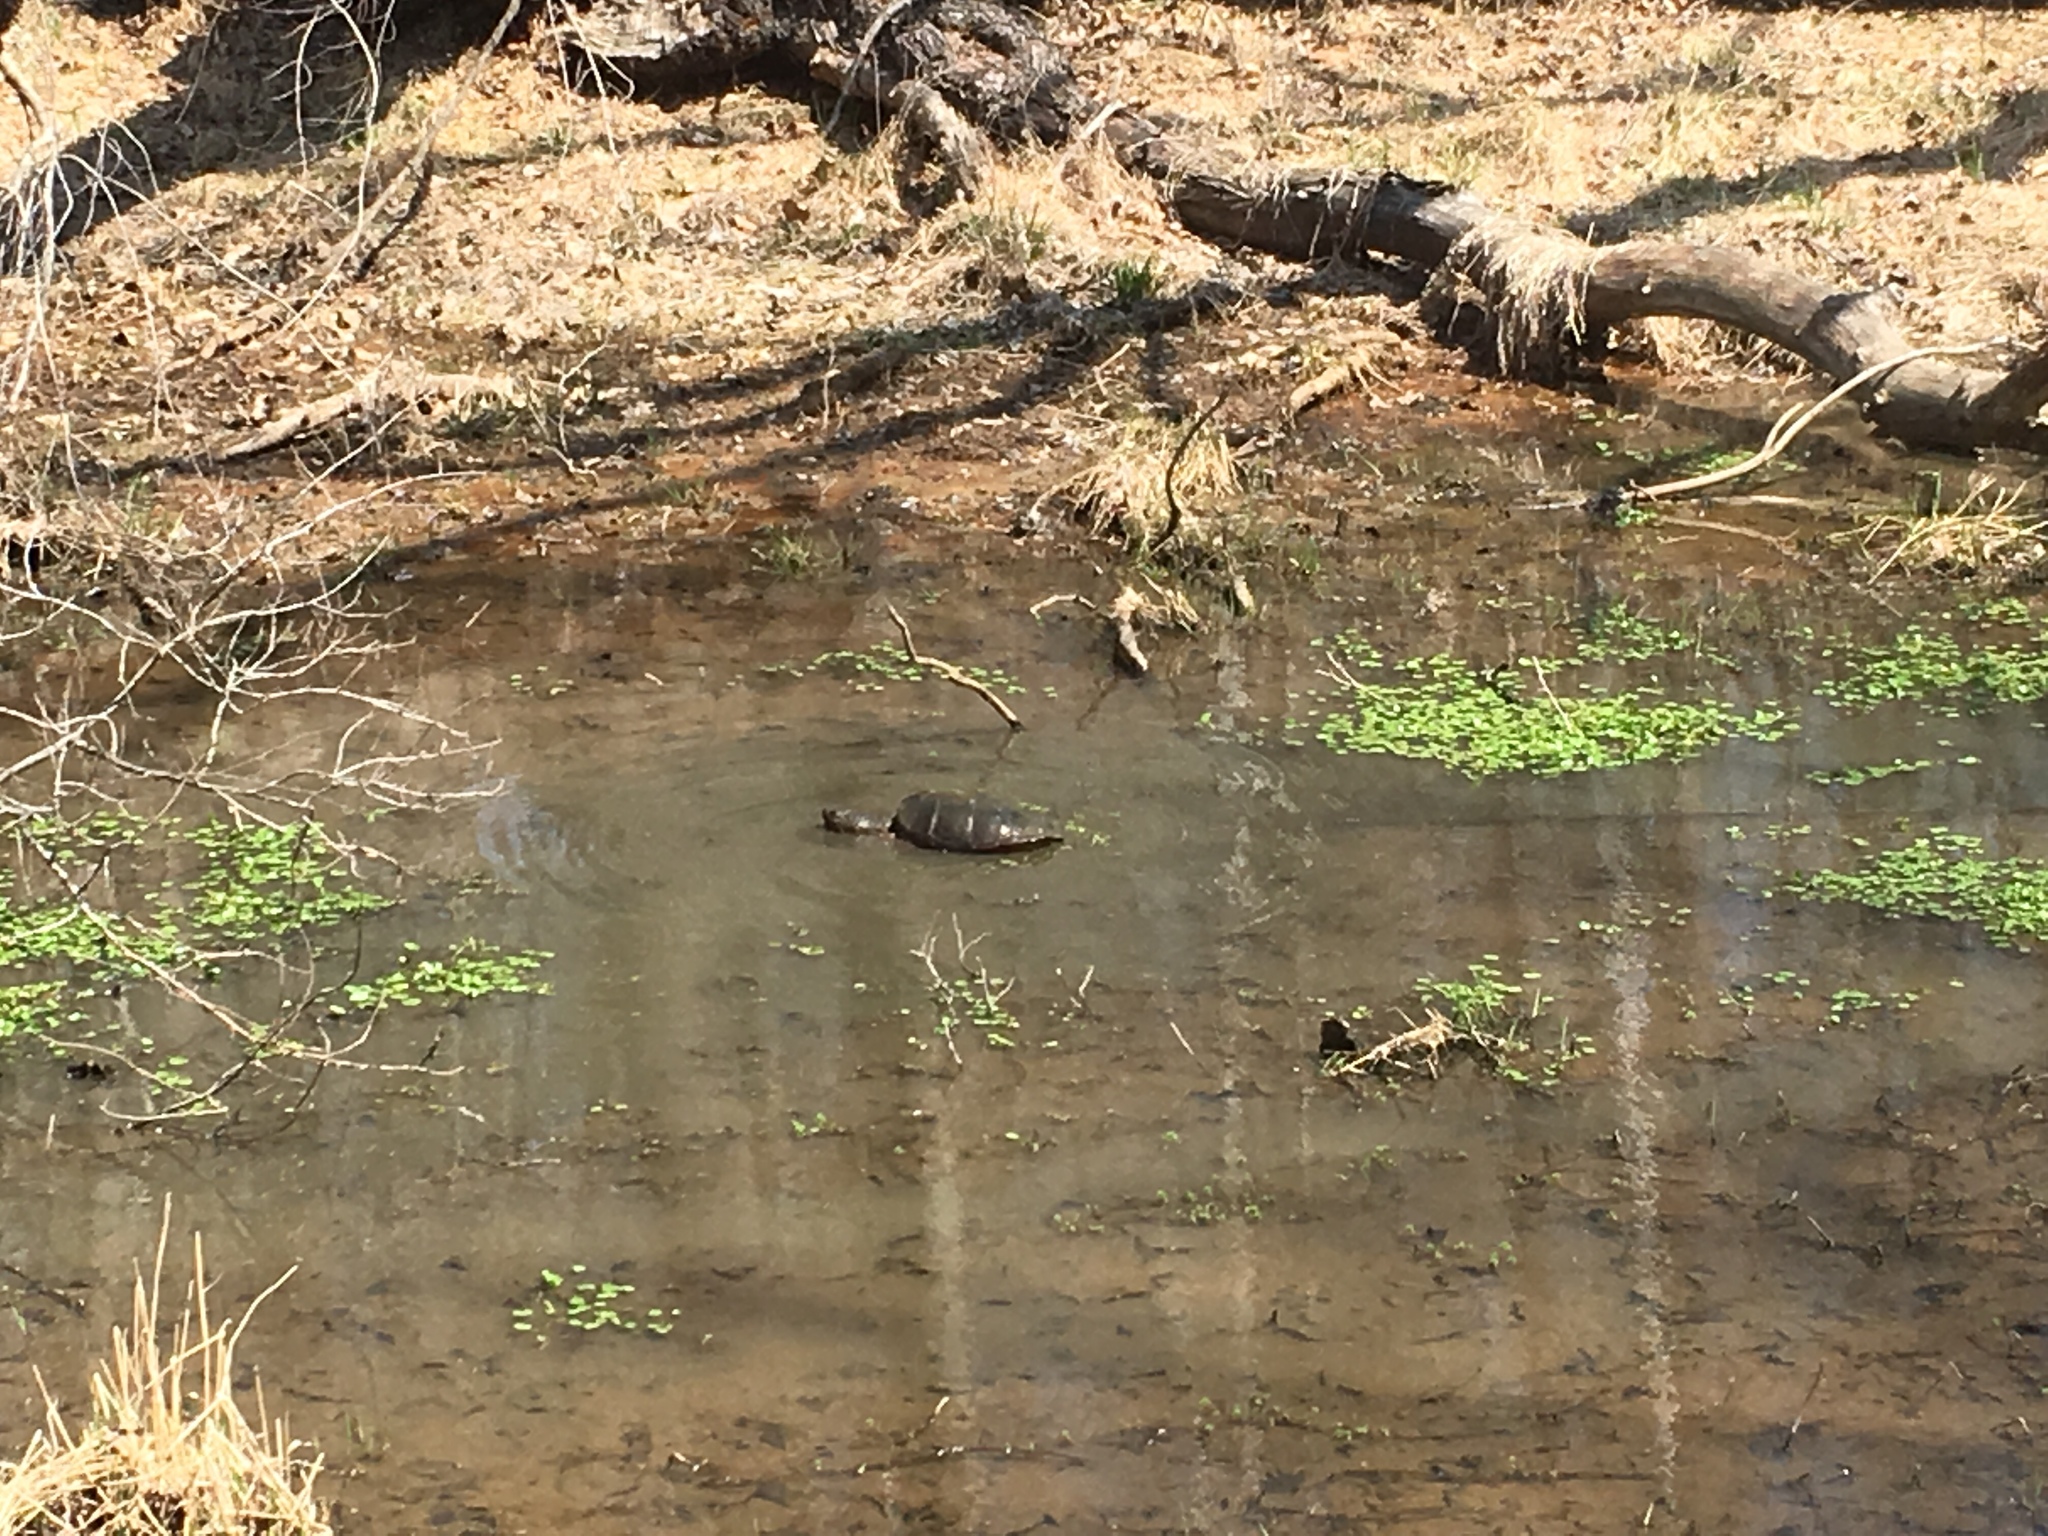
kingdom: Animalia
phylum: Chordata
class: Testudines
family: Chelydridae
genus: Chelydra
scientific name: Chelydra serpentina
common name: Common snapping turtle
